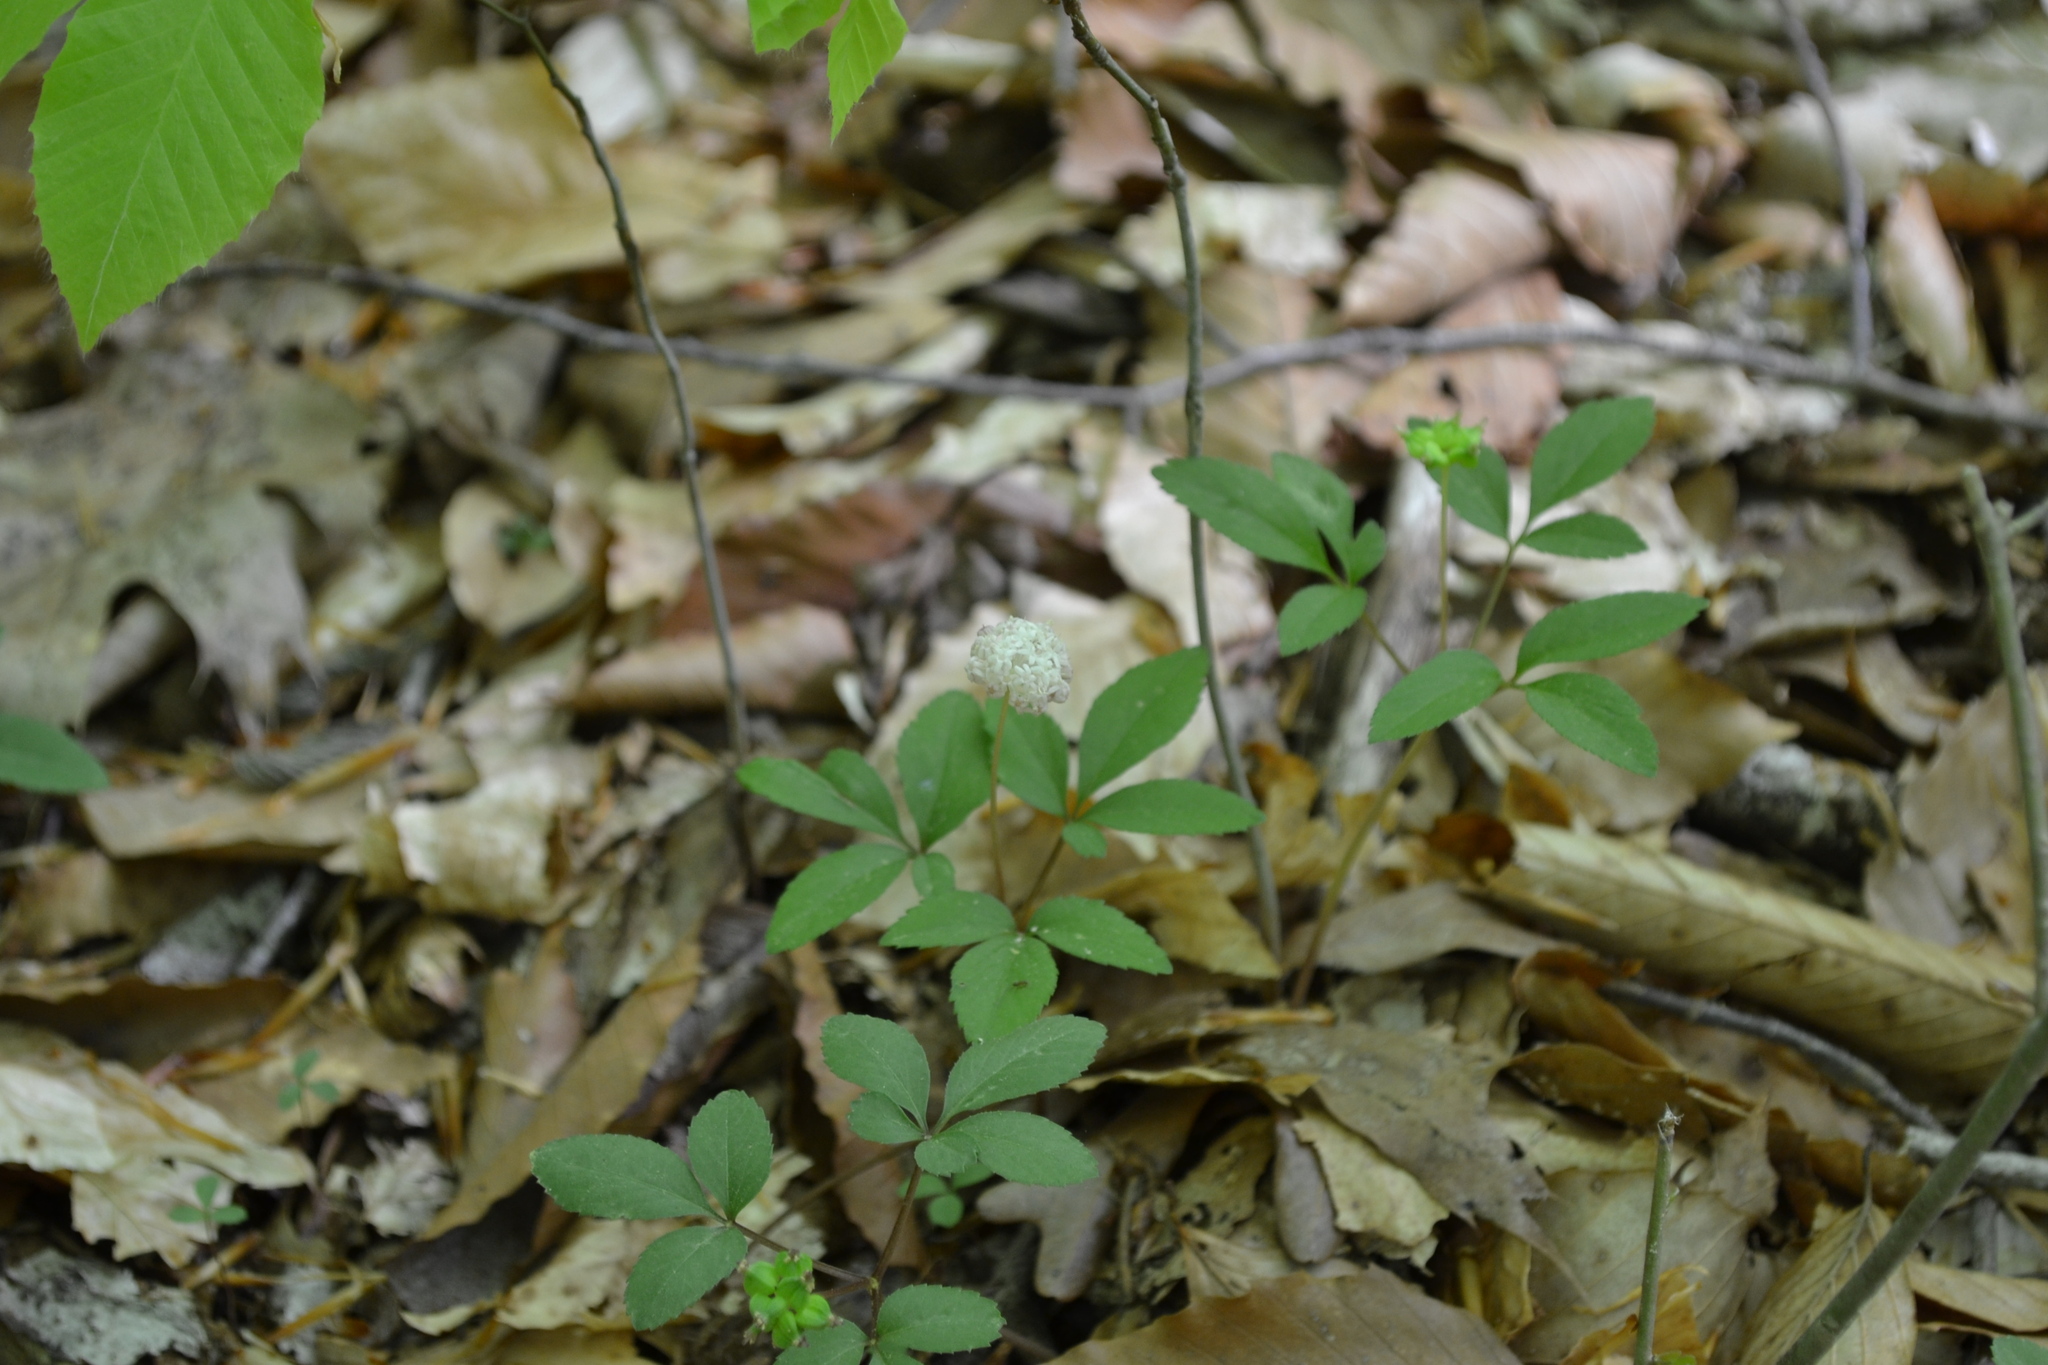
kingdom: Plantae
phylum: Tracheophyta
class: Magnoliopsida
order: Apiales
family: Araliaceae
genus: Panax
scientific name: Panax trifolius
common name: Dwarf ginseng
